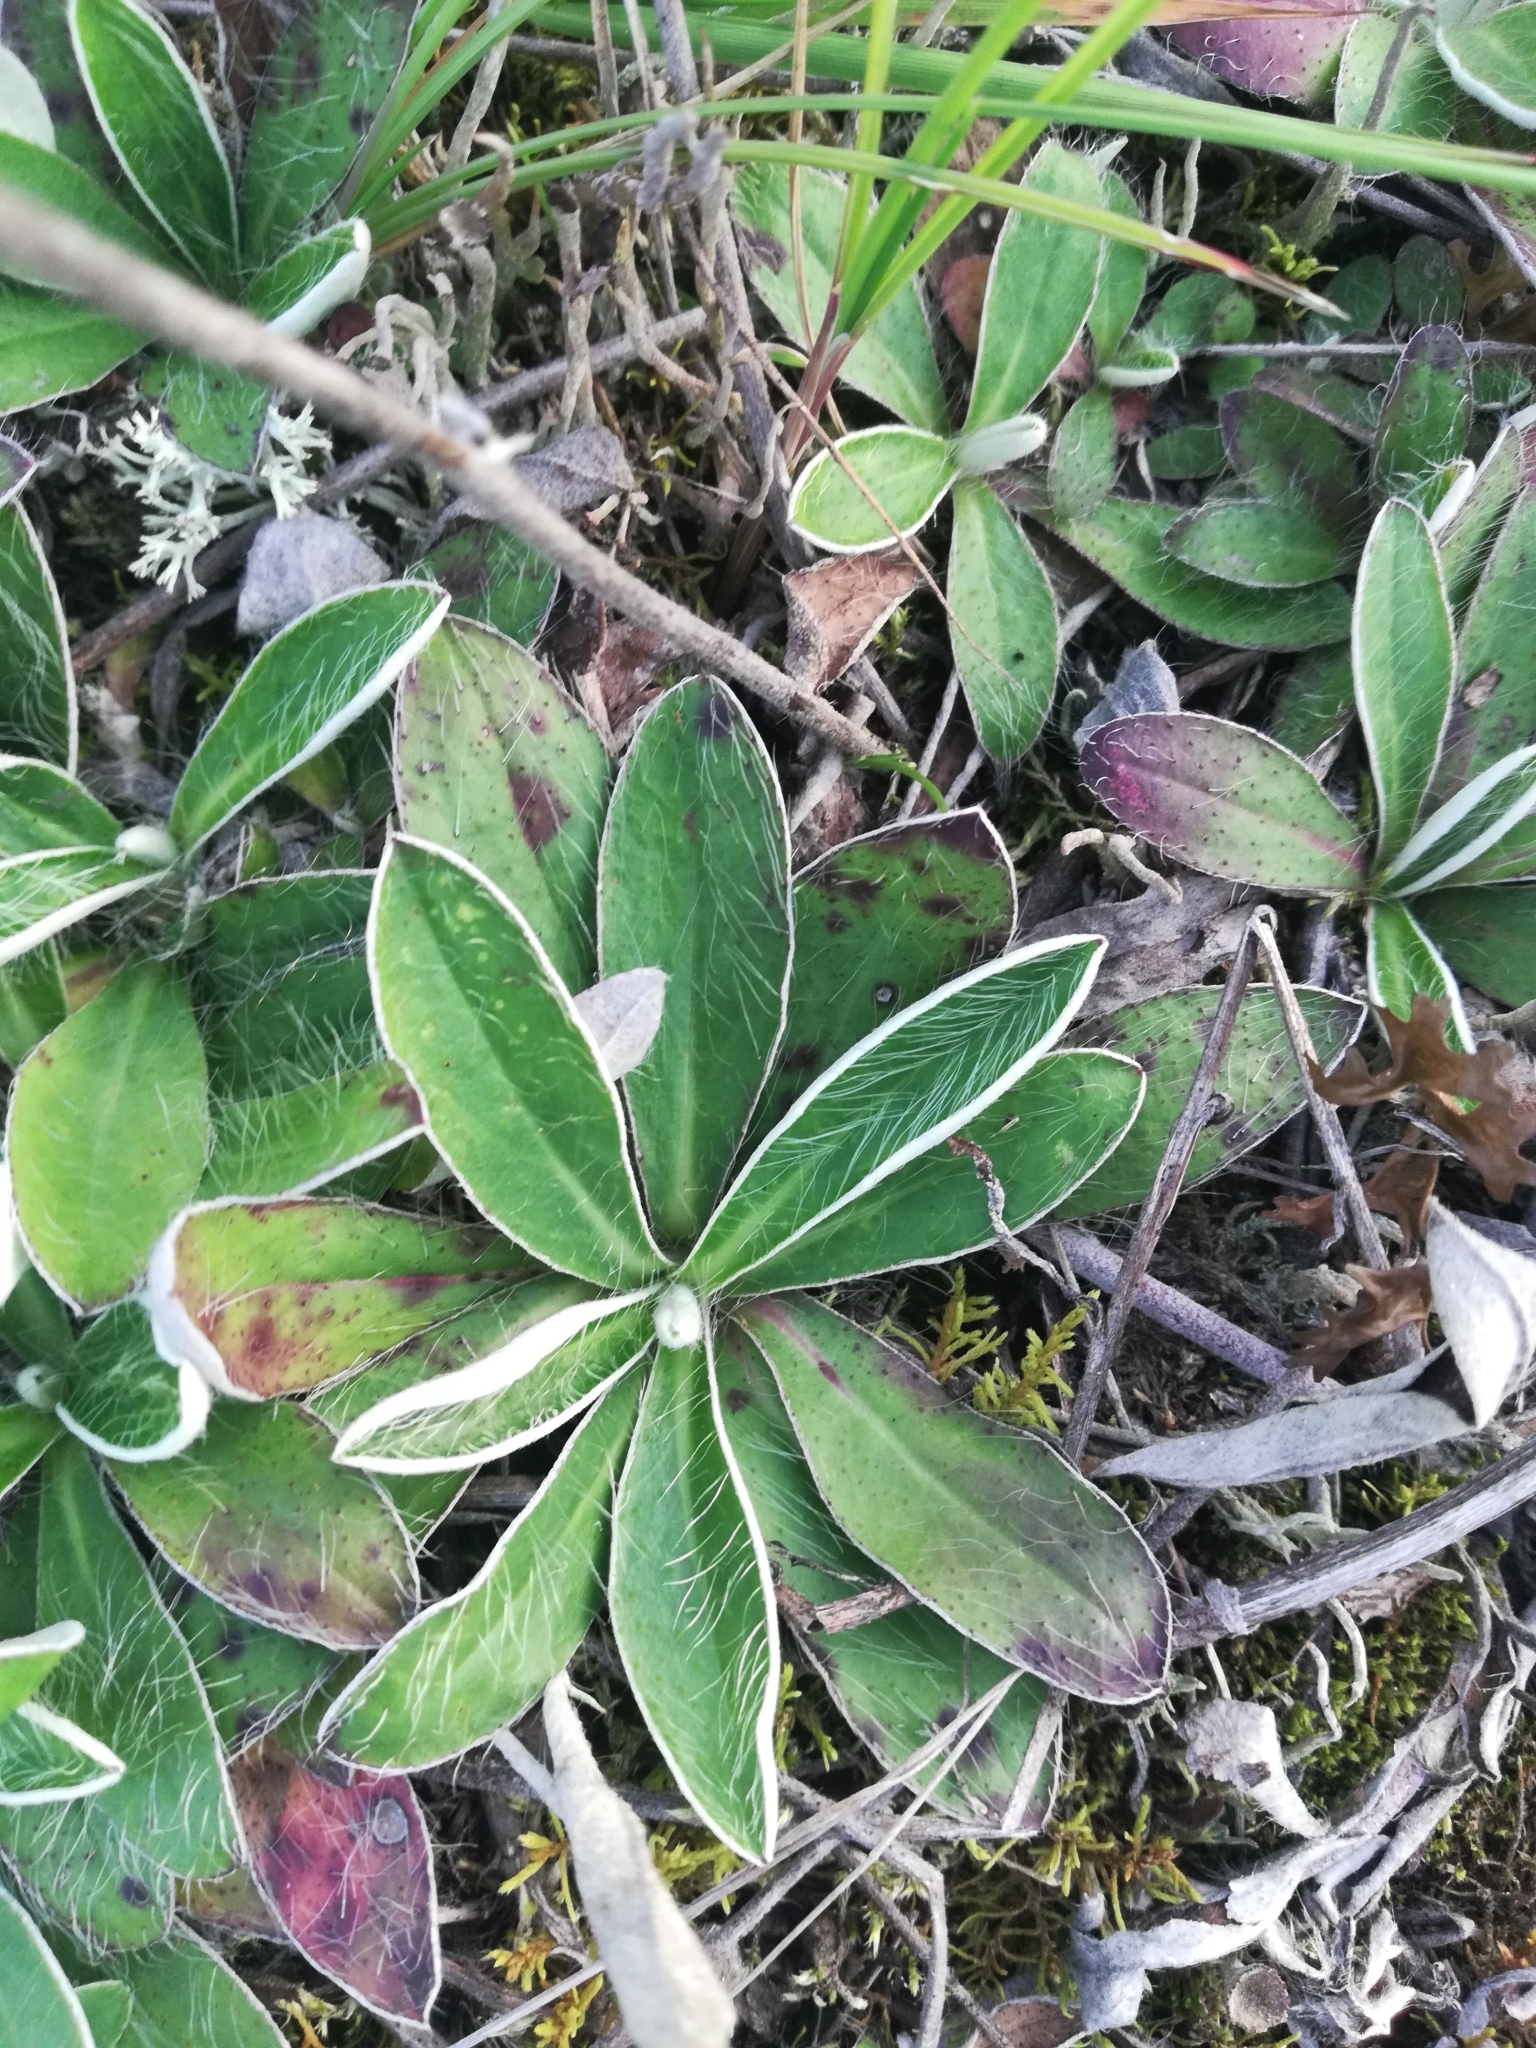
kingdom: Plantae
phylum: Tracheophyta
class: Magnoliopsida
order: Asterales
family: Asteraceae
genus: Pilosella
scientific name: Pilosella officinarum
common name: Mouse-ear hawkweed
